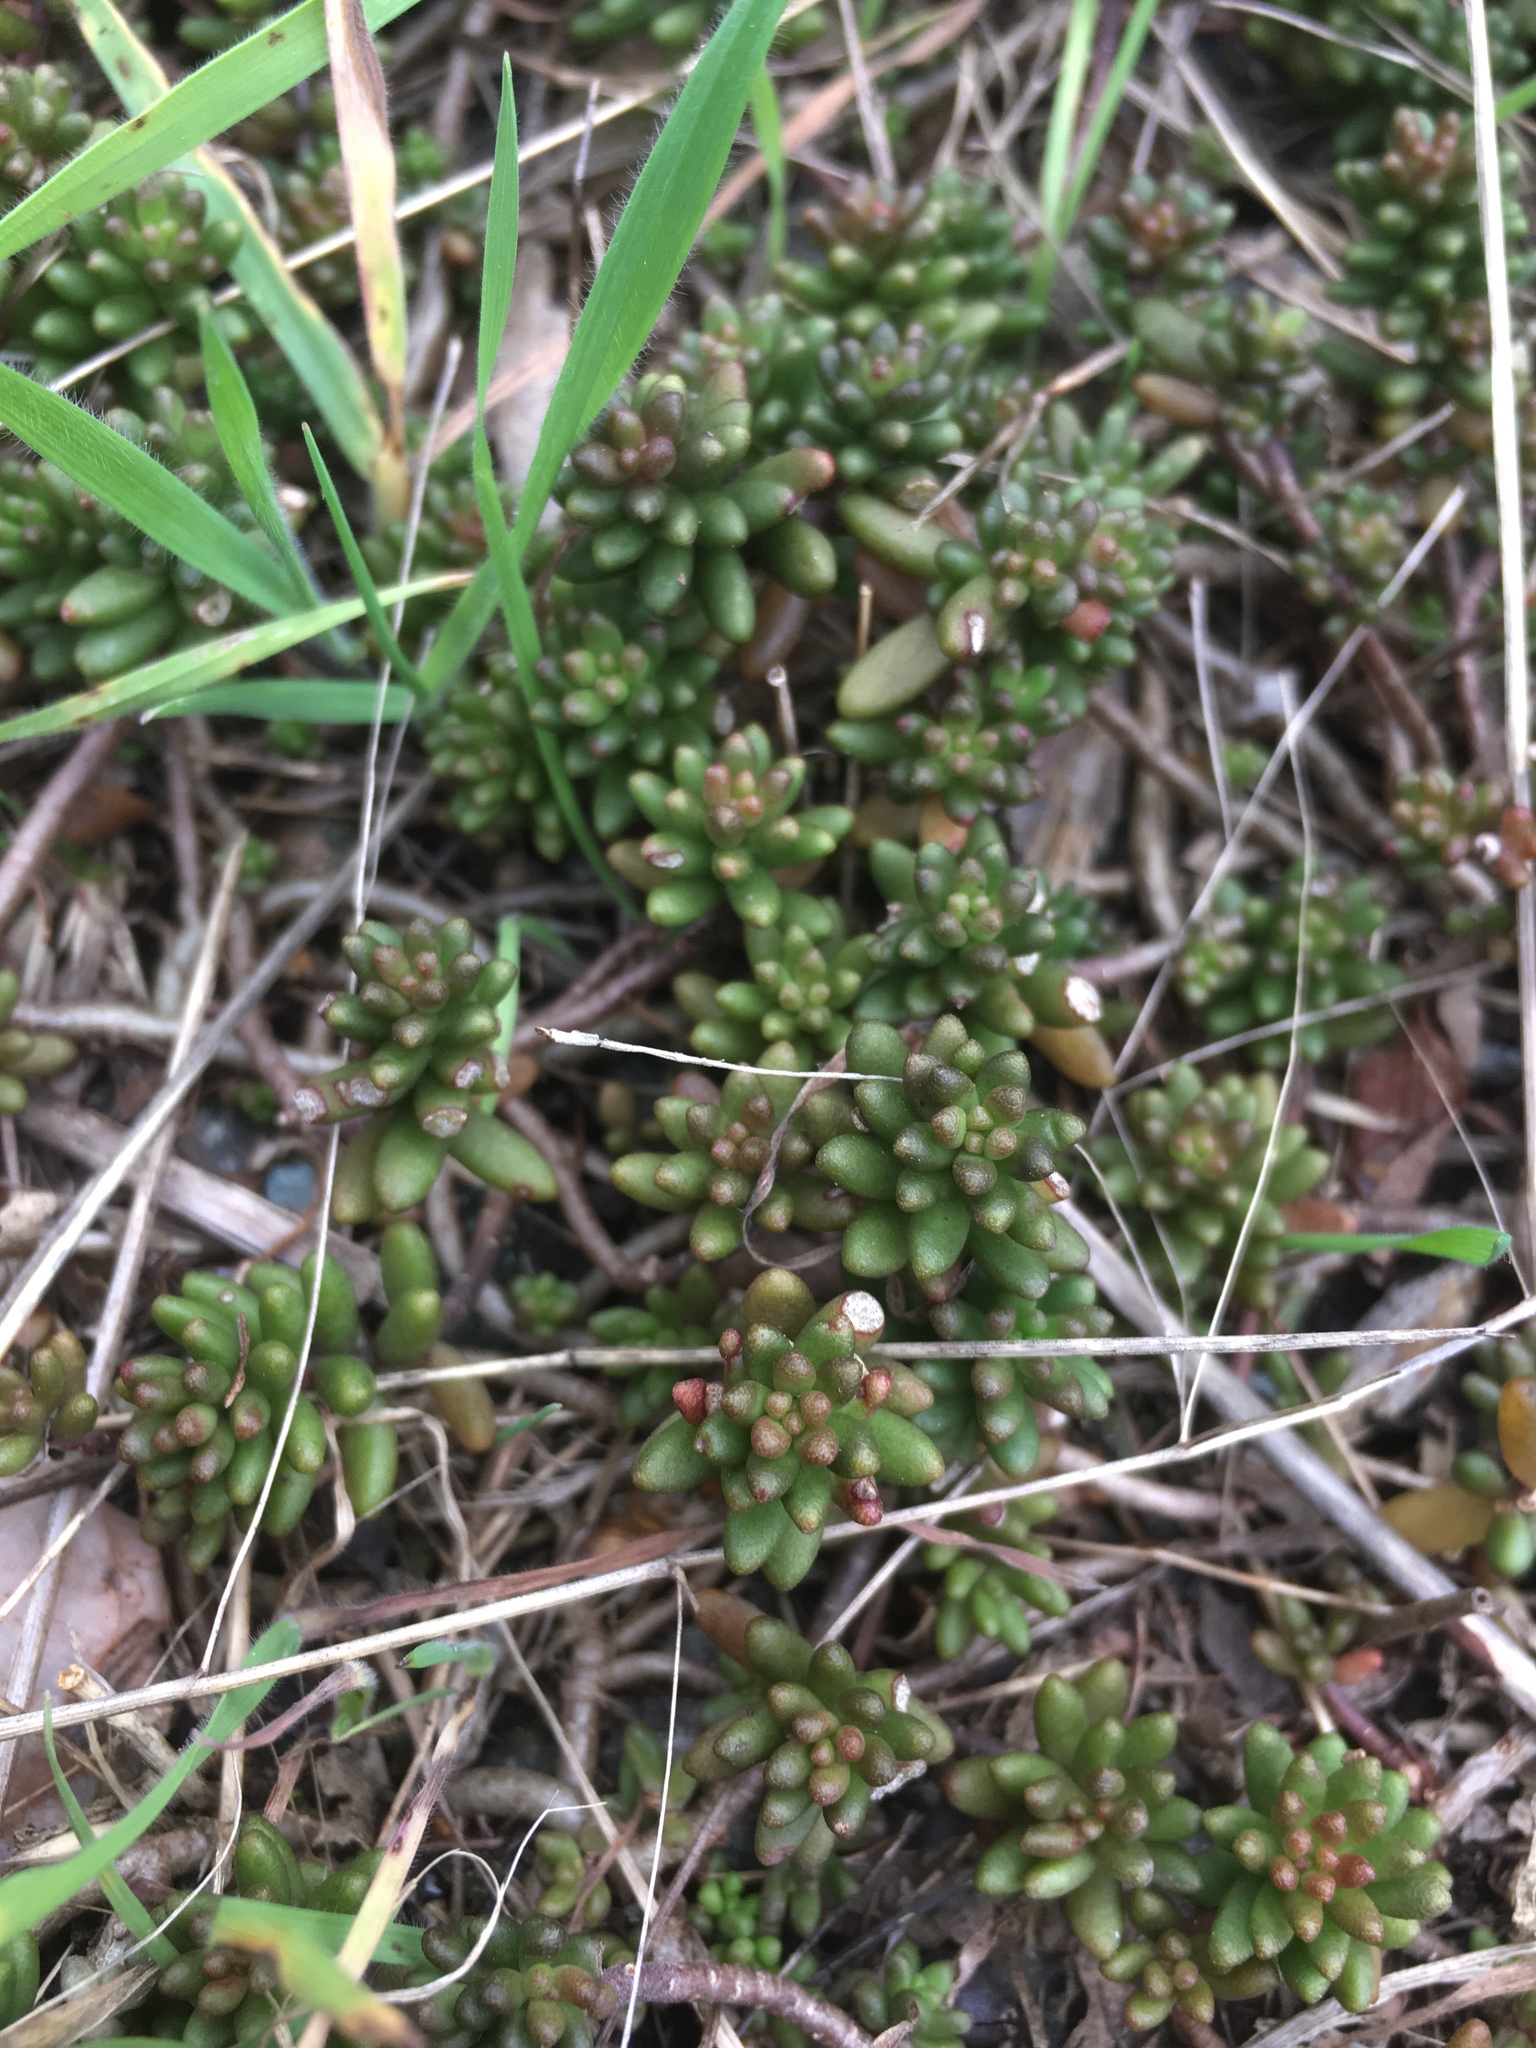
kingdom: Plantae
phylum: Tracheophyta
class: Magnoliopsida
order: Saxifragales
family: Crassulaceae
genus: Sedum
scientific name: Sedum album
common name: White stonecrop
